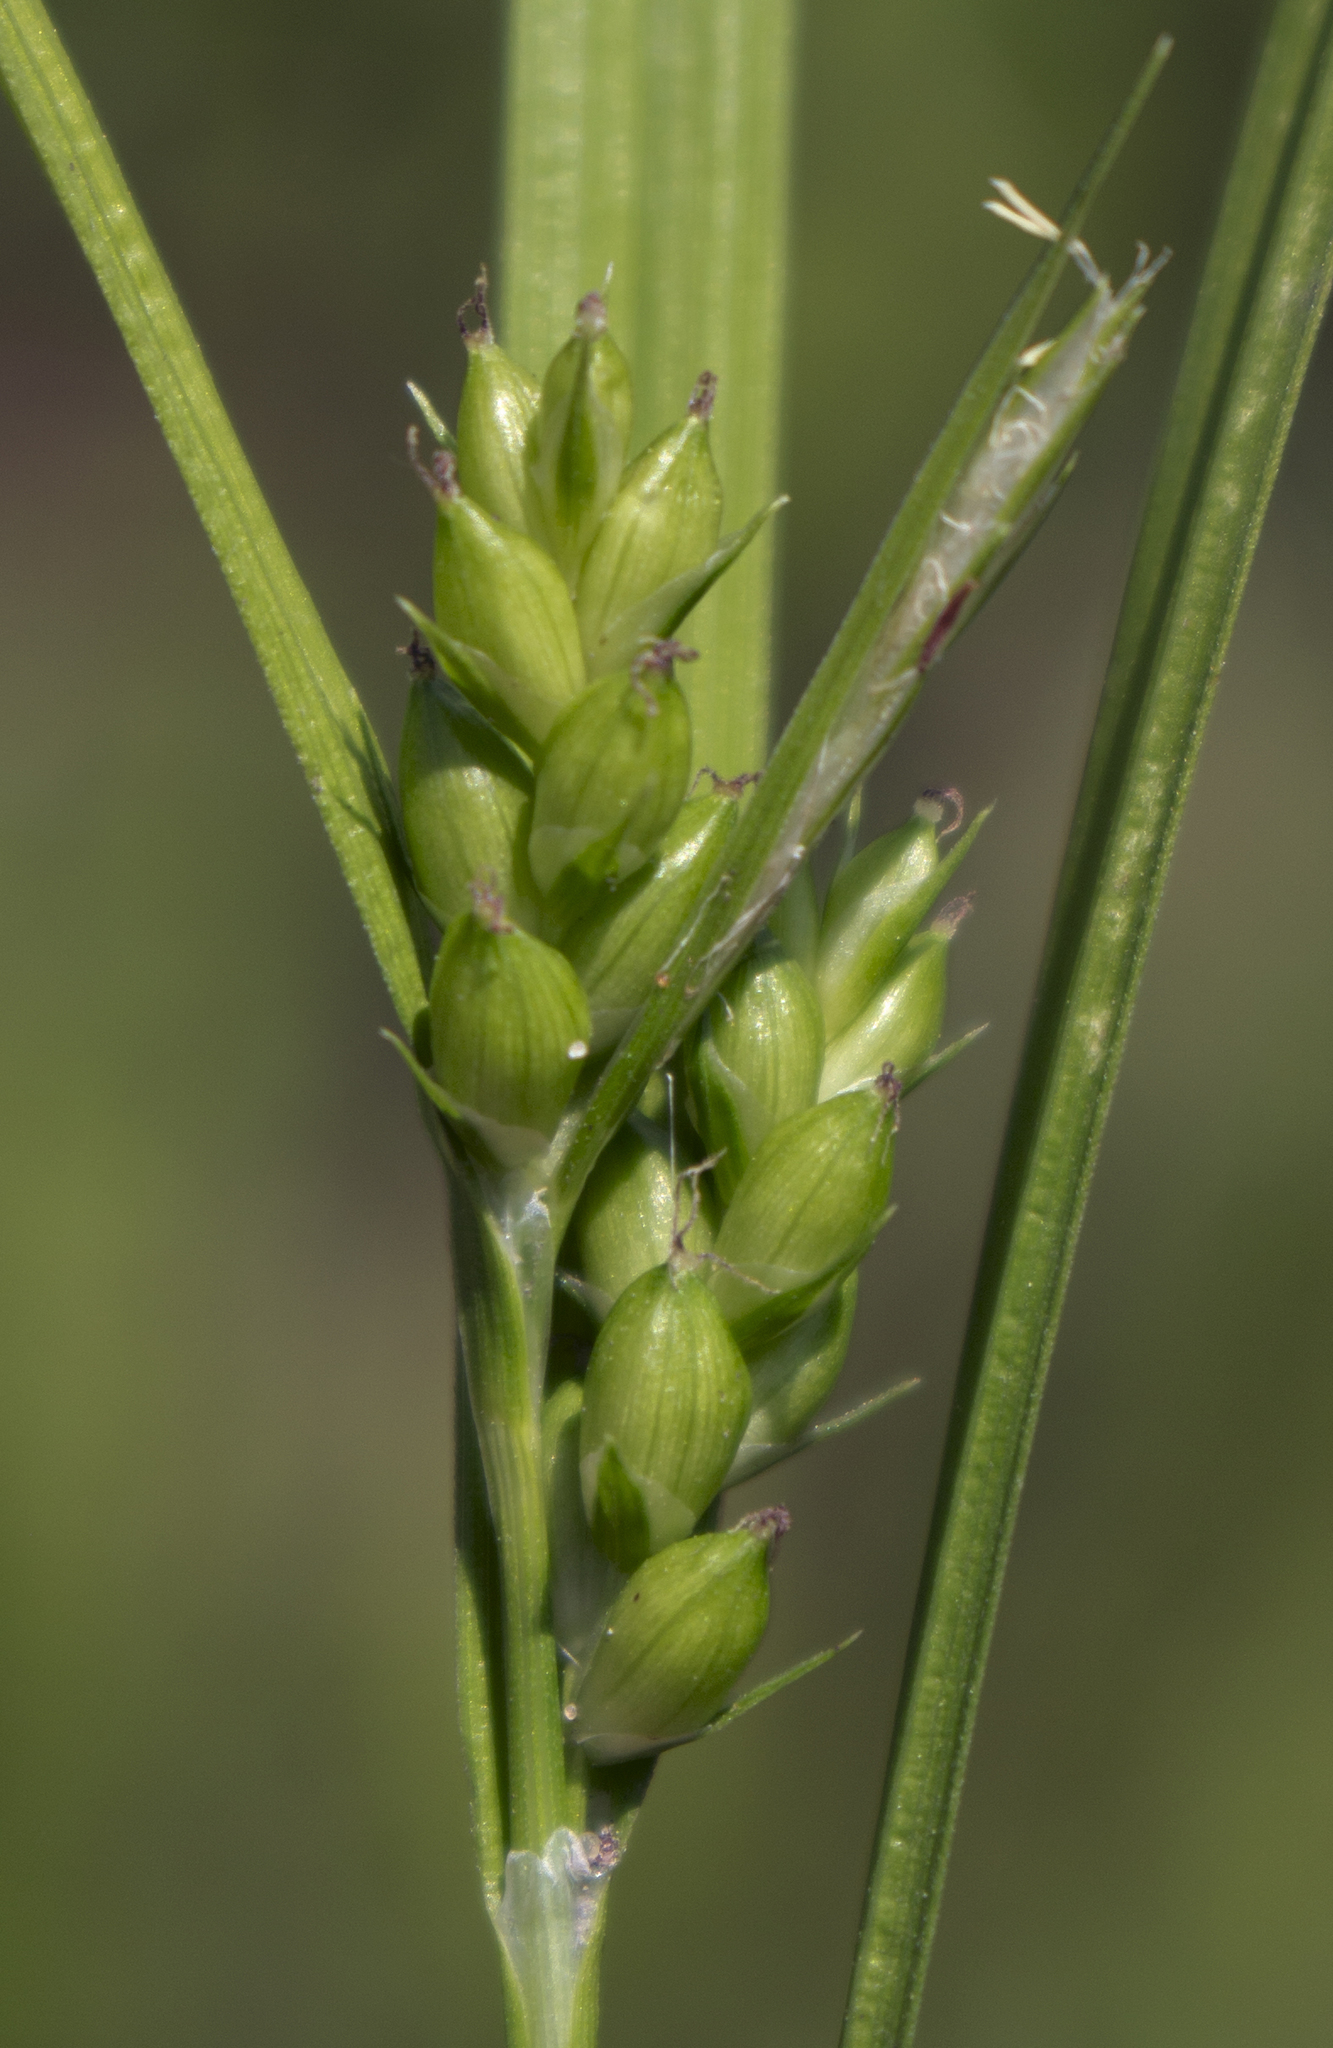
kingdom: Plantae
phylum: Tracheophyta
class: Liliopsida
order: Poales
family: Cyperaceae
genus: Carex
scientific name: Carex grisea
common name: Eastern narrow-leaved sedge
